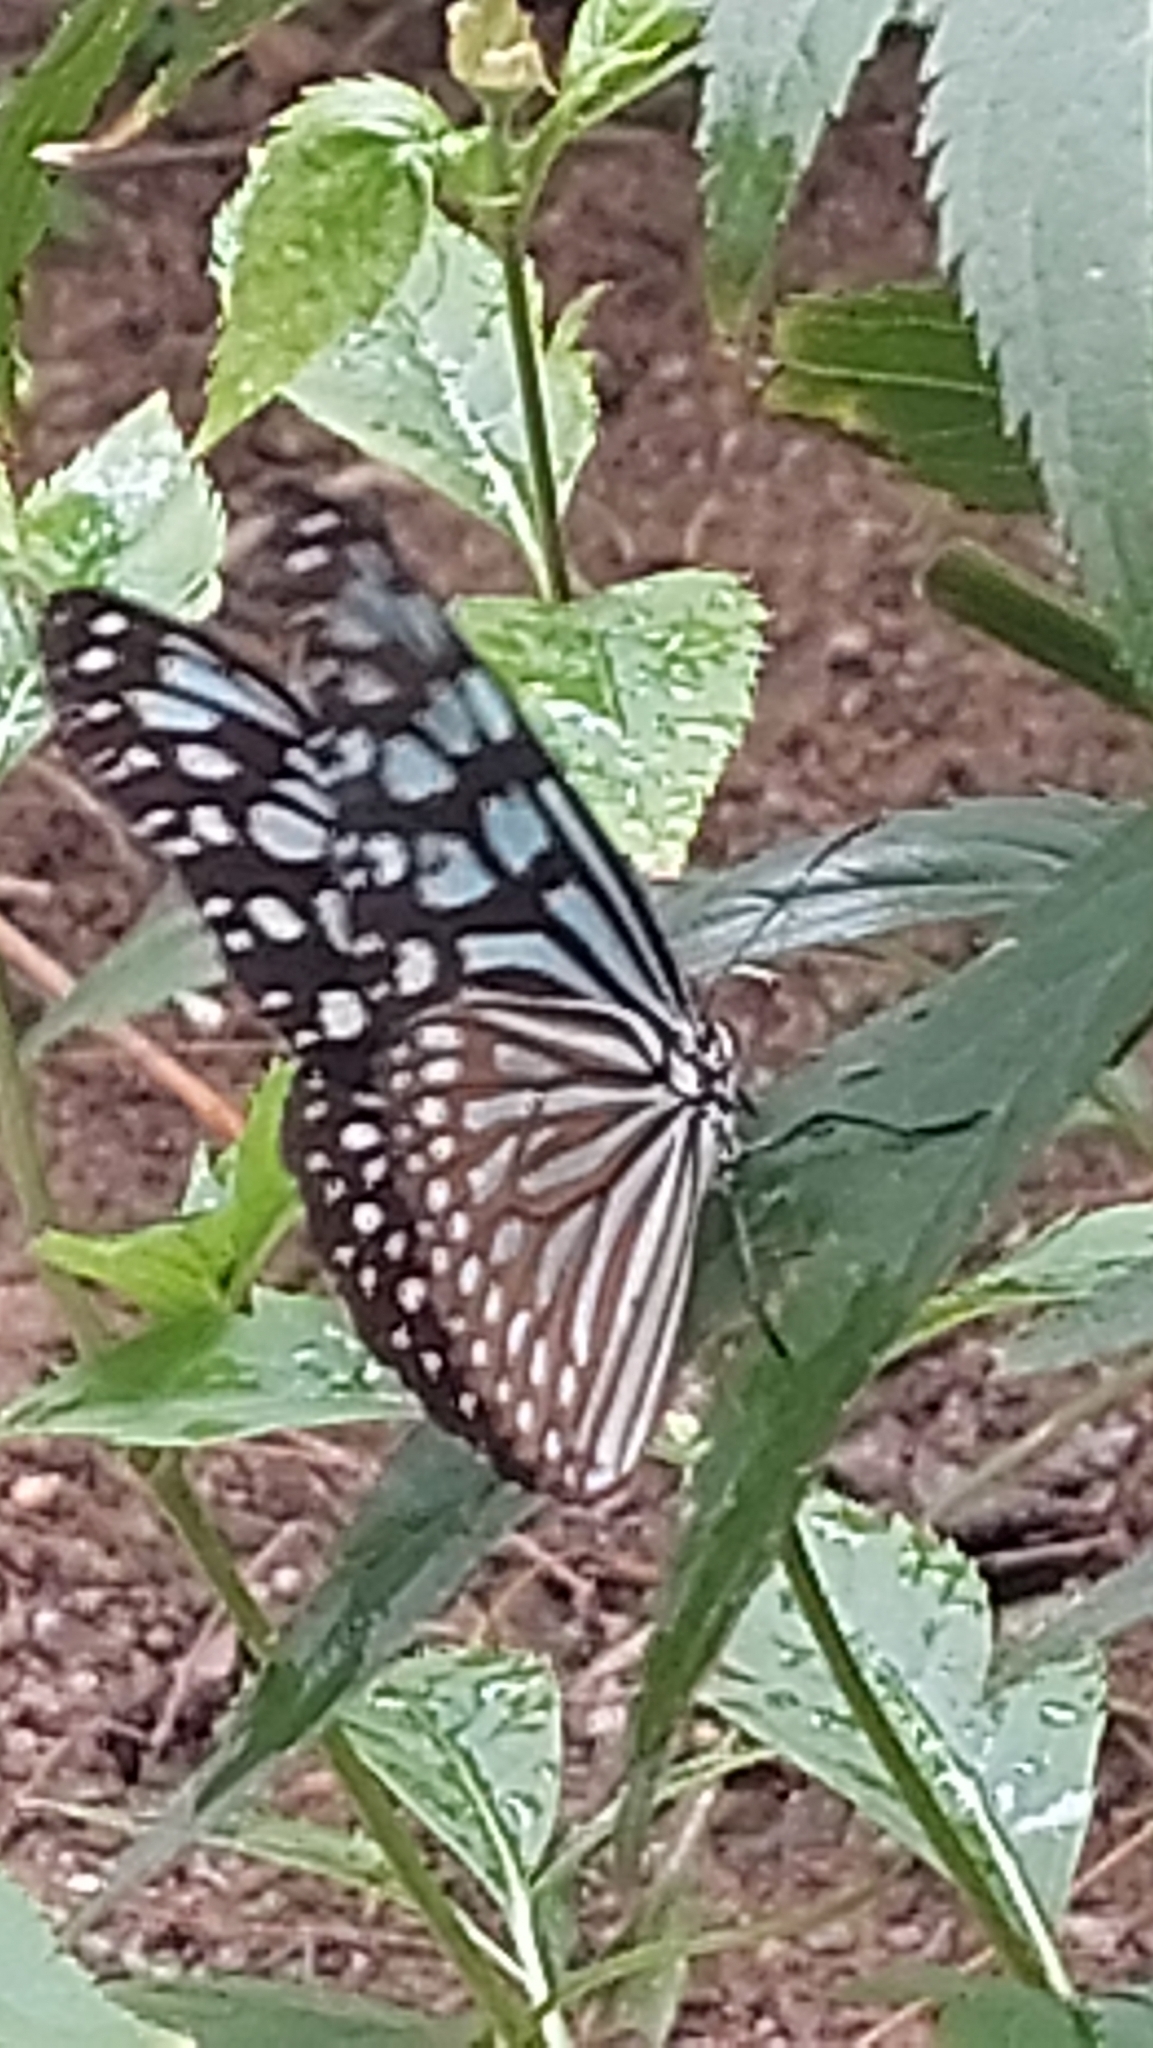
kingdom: Animalia
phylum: Arthropoda
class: Insecta
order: Lepidoptera
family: Nymphalidae
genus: Ideopsis
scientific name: Ideopsis similis
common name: Ceylon blue glassy tiger
